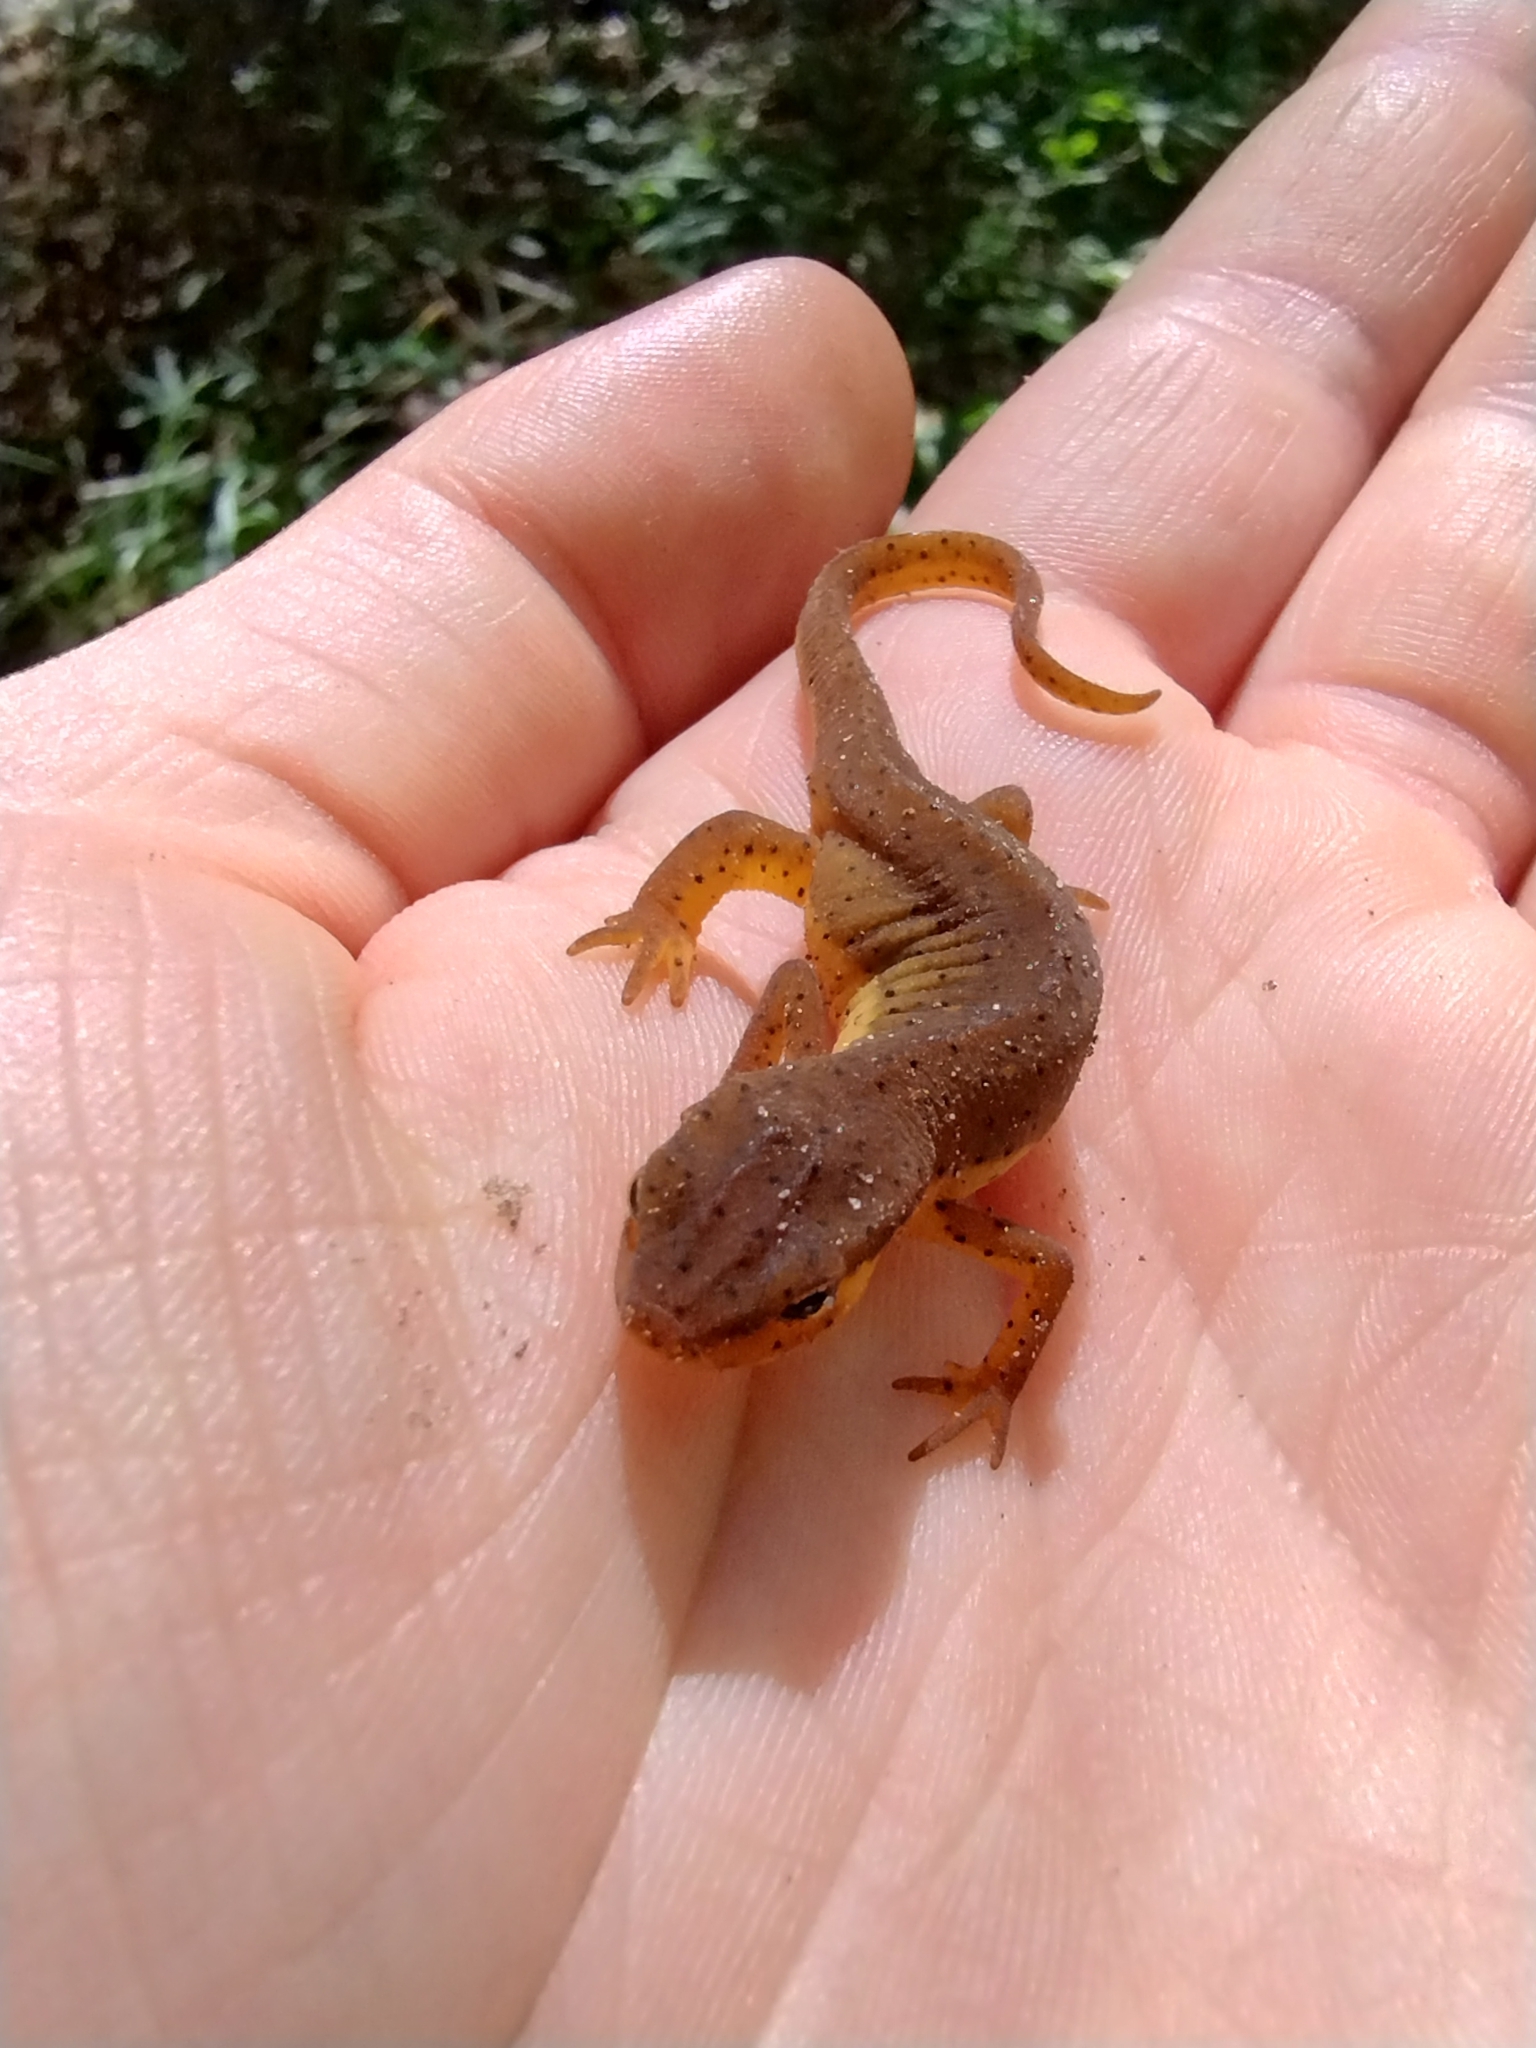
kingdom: Animalia
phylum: Chordata
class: Amphibia
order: Caudata
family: Salamandridae
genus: Notophthalmus
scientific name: Notophthalmus viridescens
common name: Eastern newt
